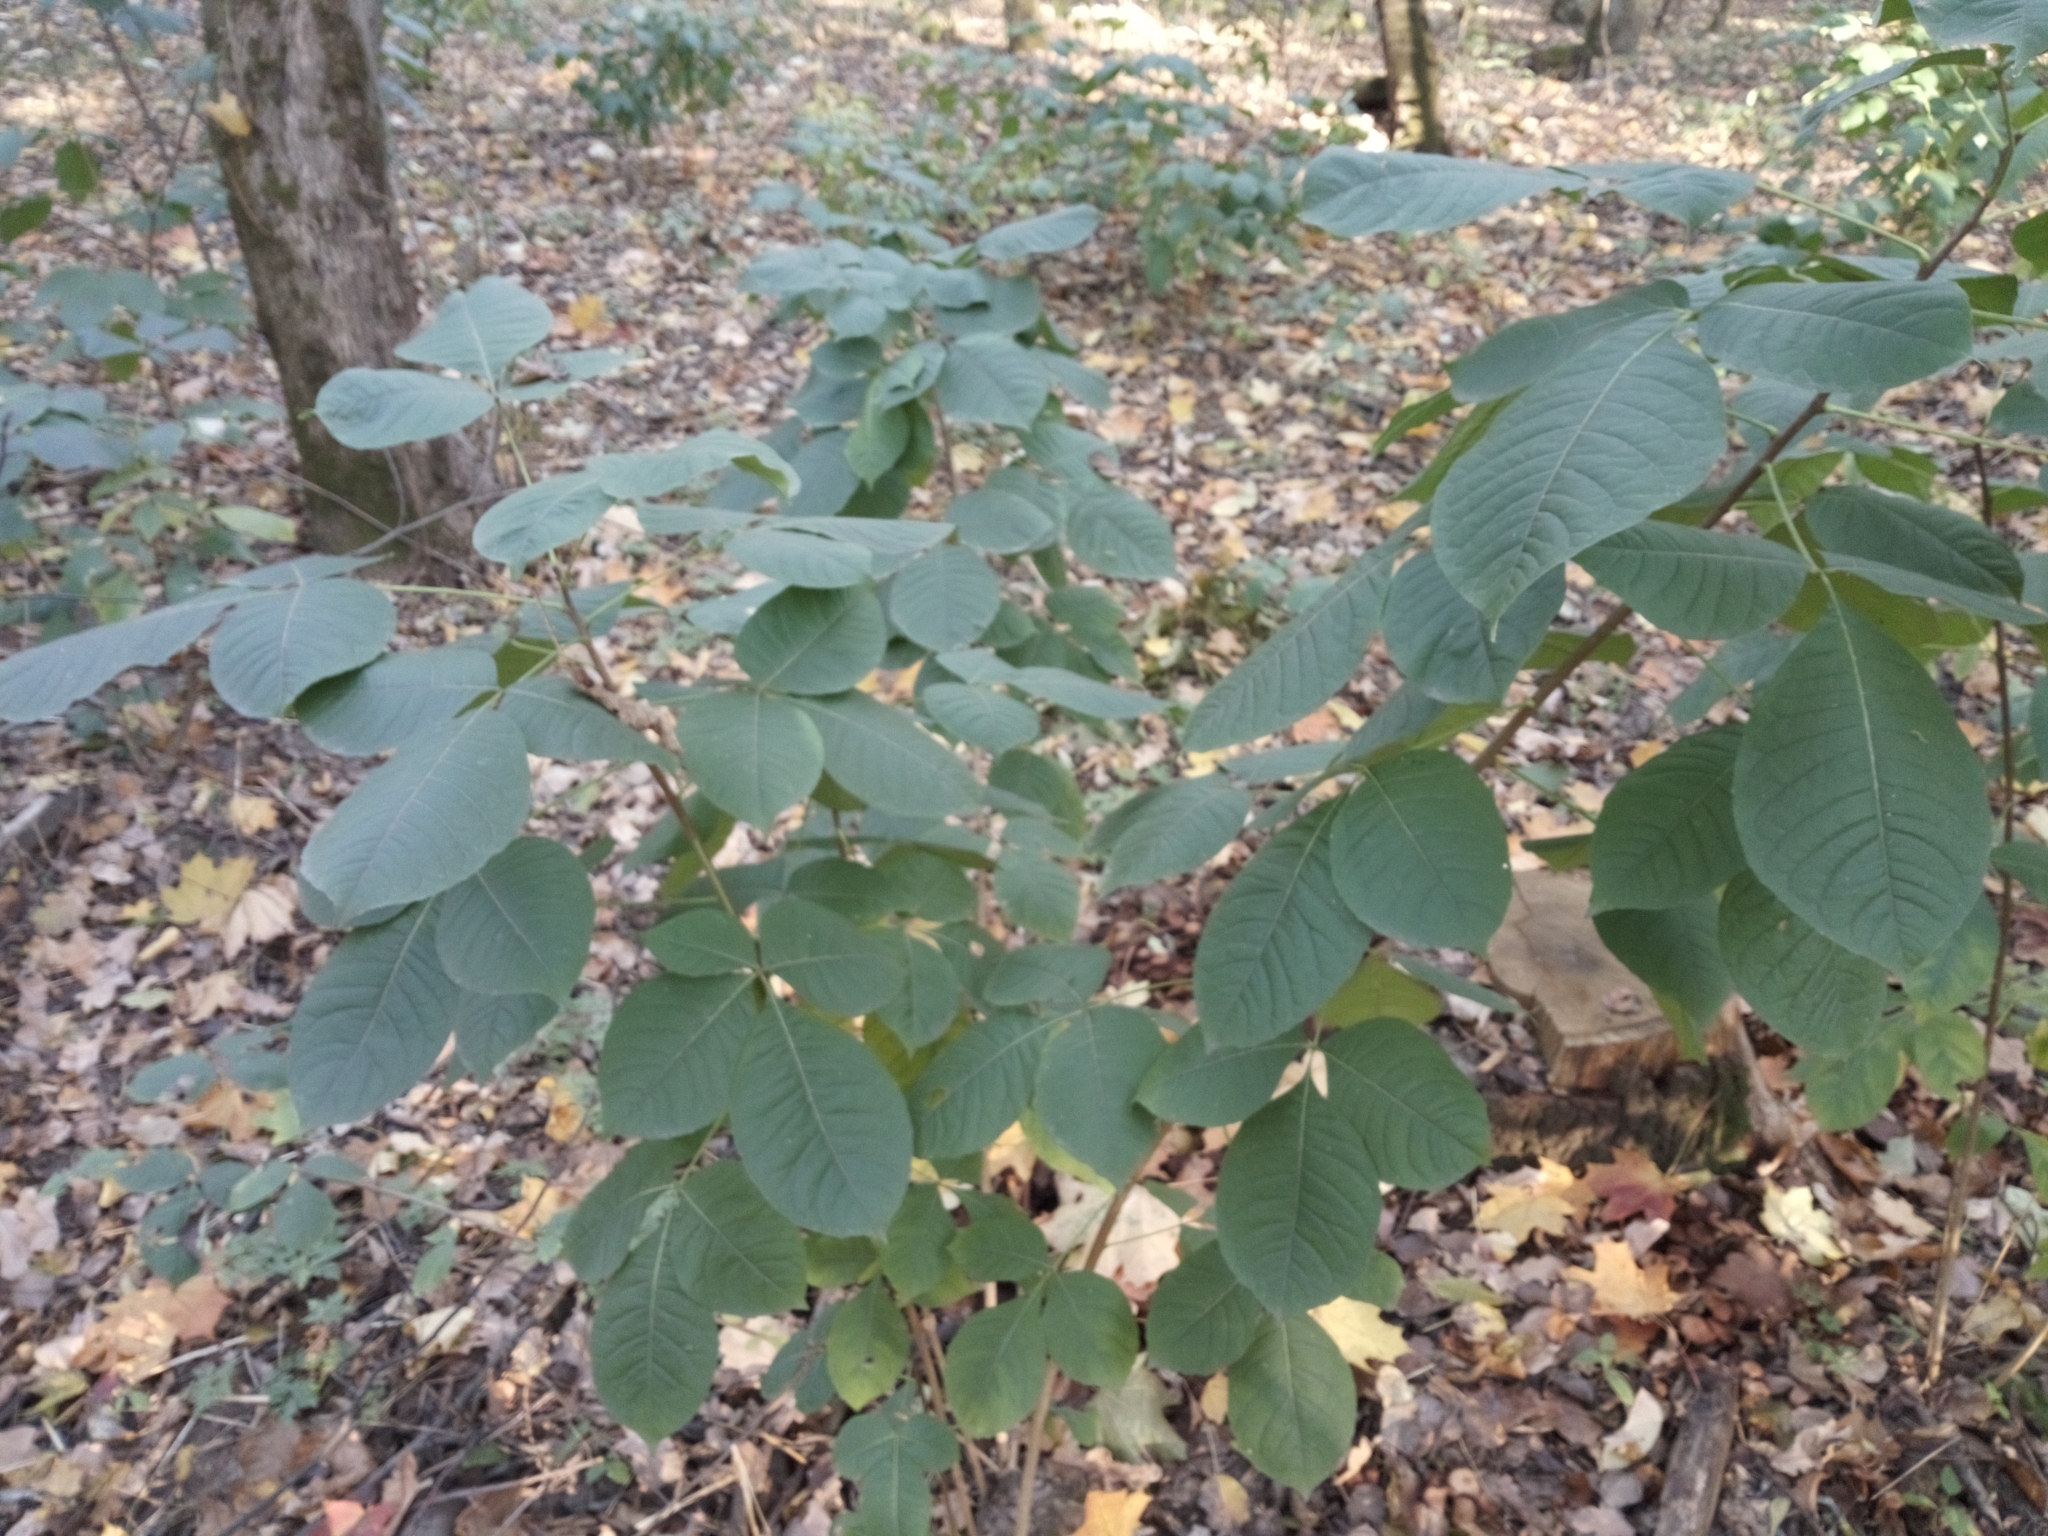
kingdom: Plantae
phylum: Tracheophyta
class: Magnoliopsida
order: Sapindales
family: Rutaceae
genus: Ptelea
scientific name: Ptelea trifoliata
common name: Common hop-tree
